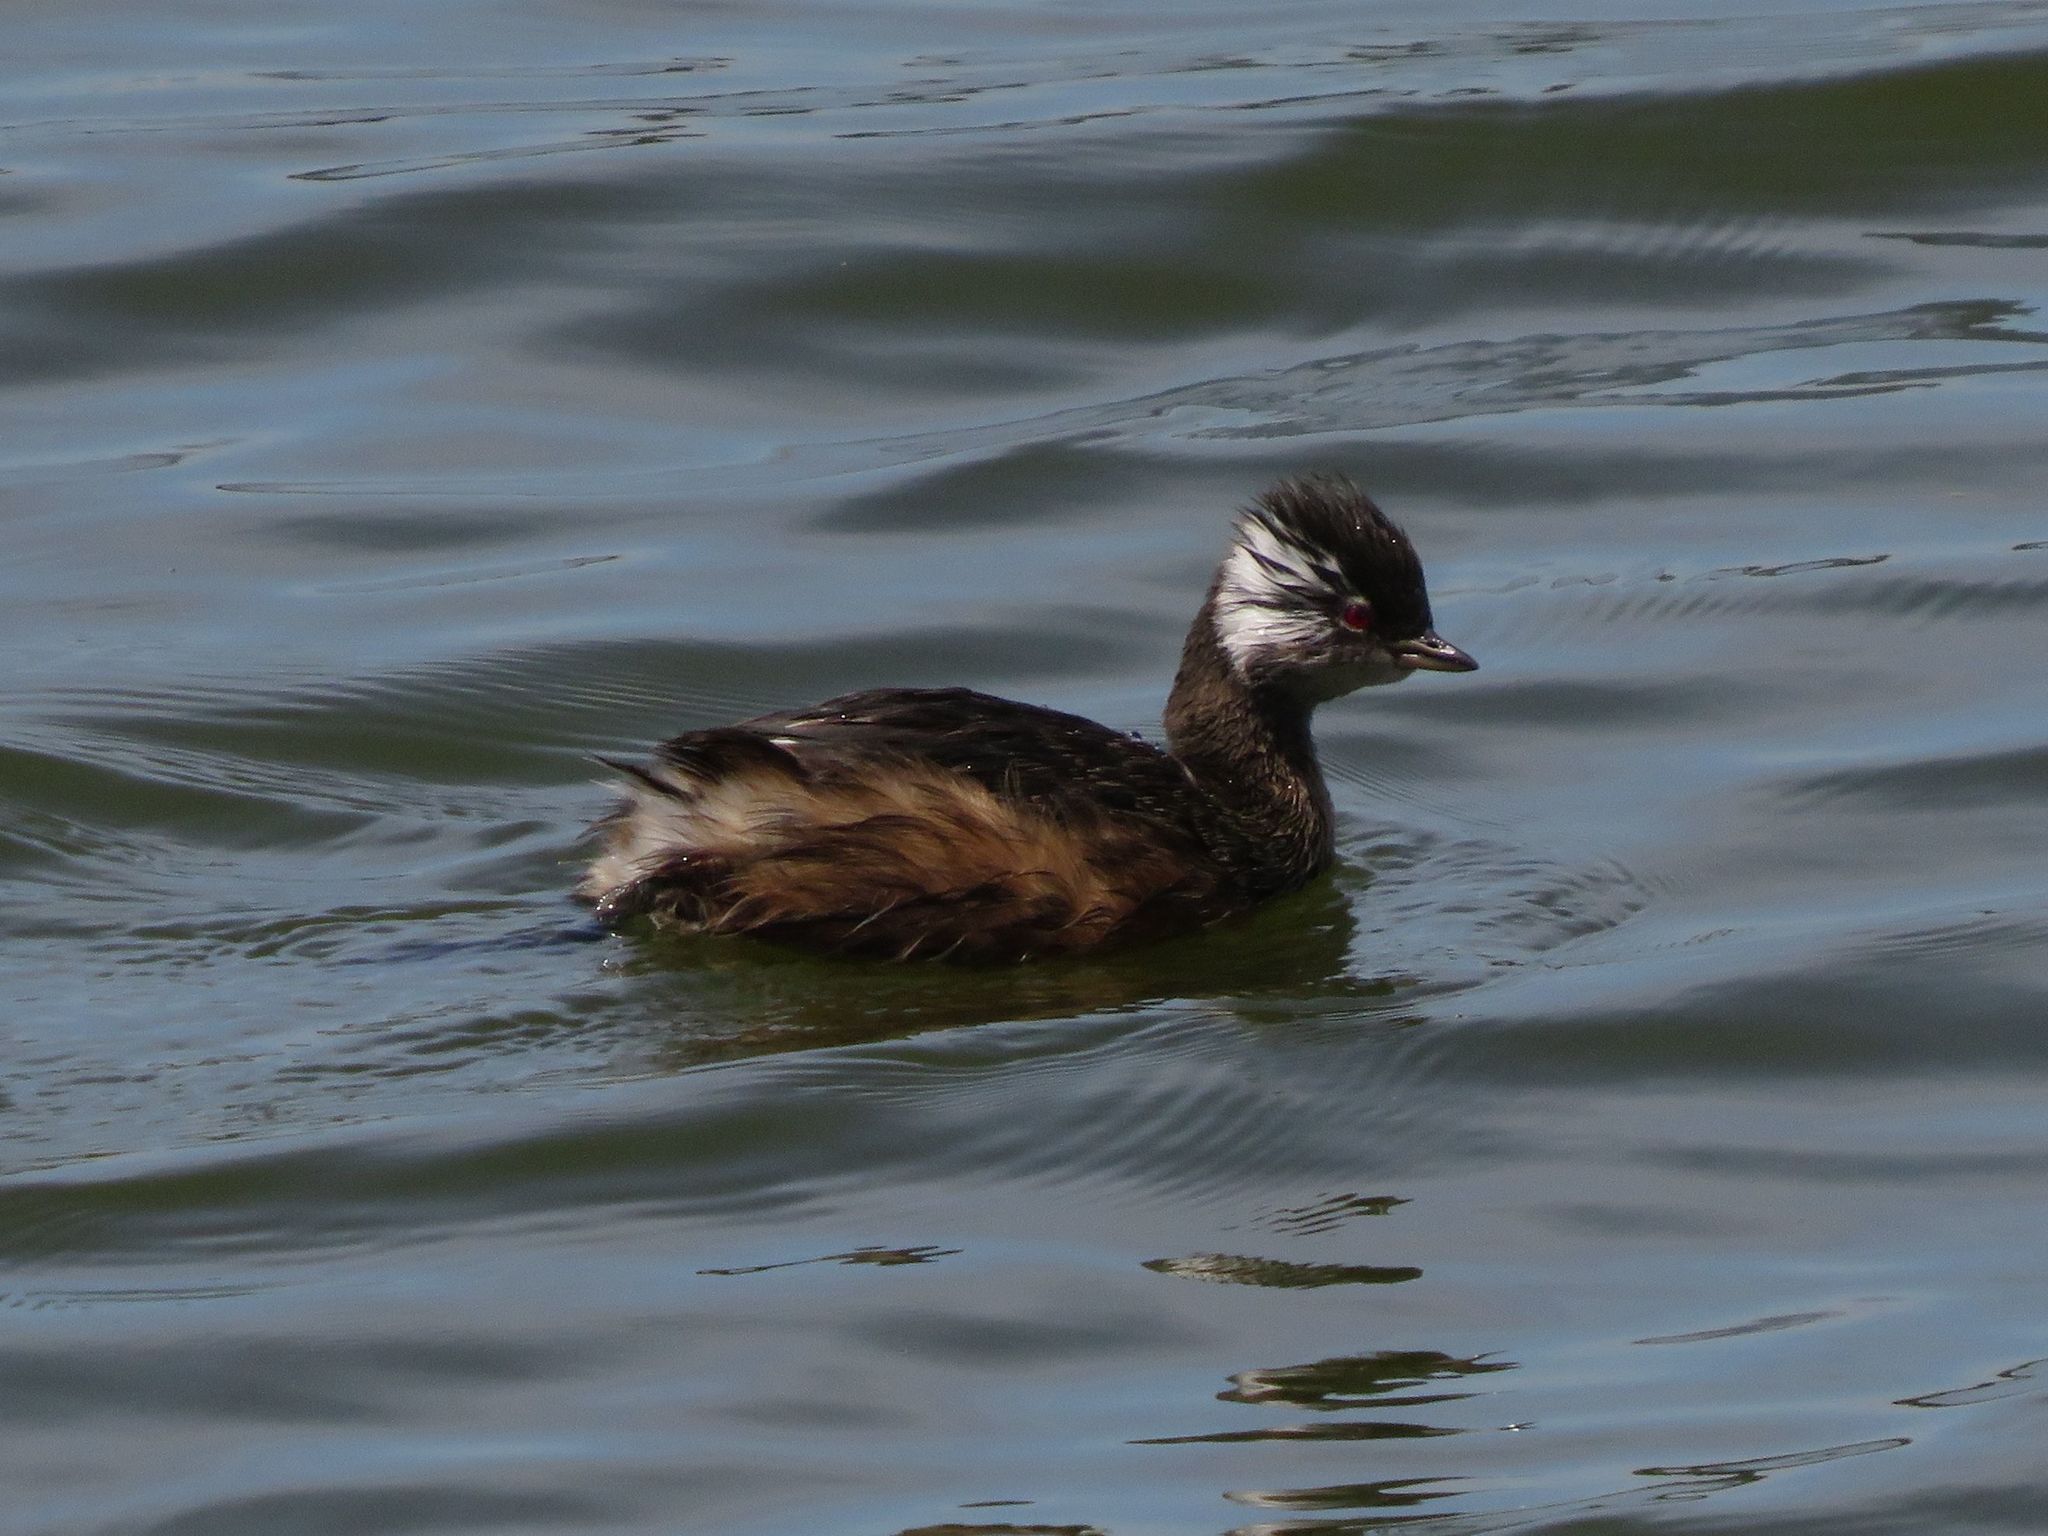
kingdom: Animalia
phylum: Chordata
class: Aves
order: Podicipediformes
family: Podicipedidae
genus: Rollandia
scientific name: Rollandia rolland
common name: White-tufted grebe
